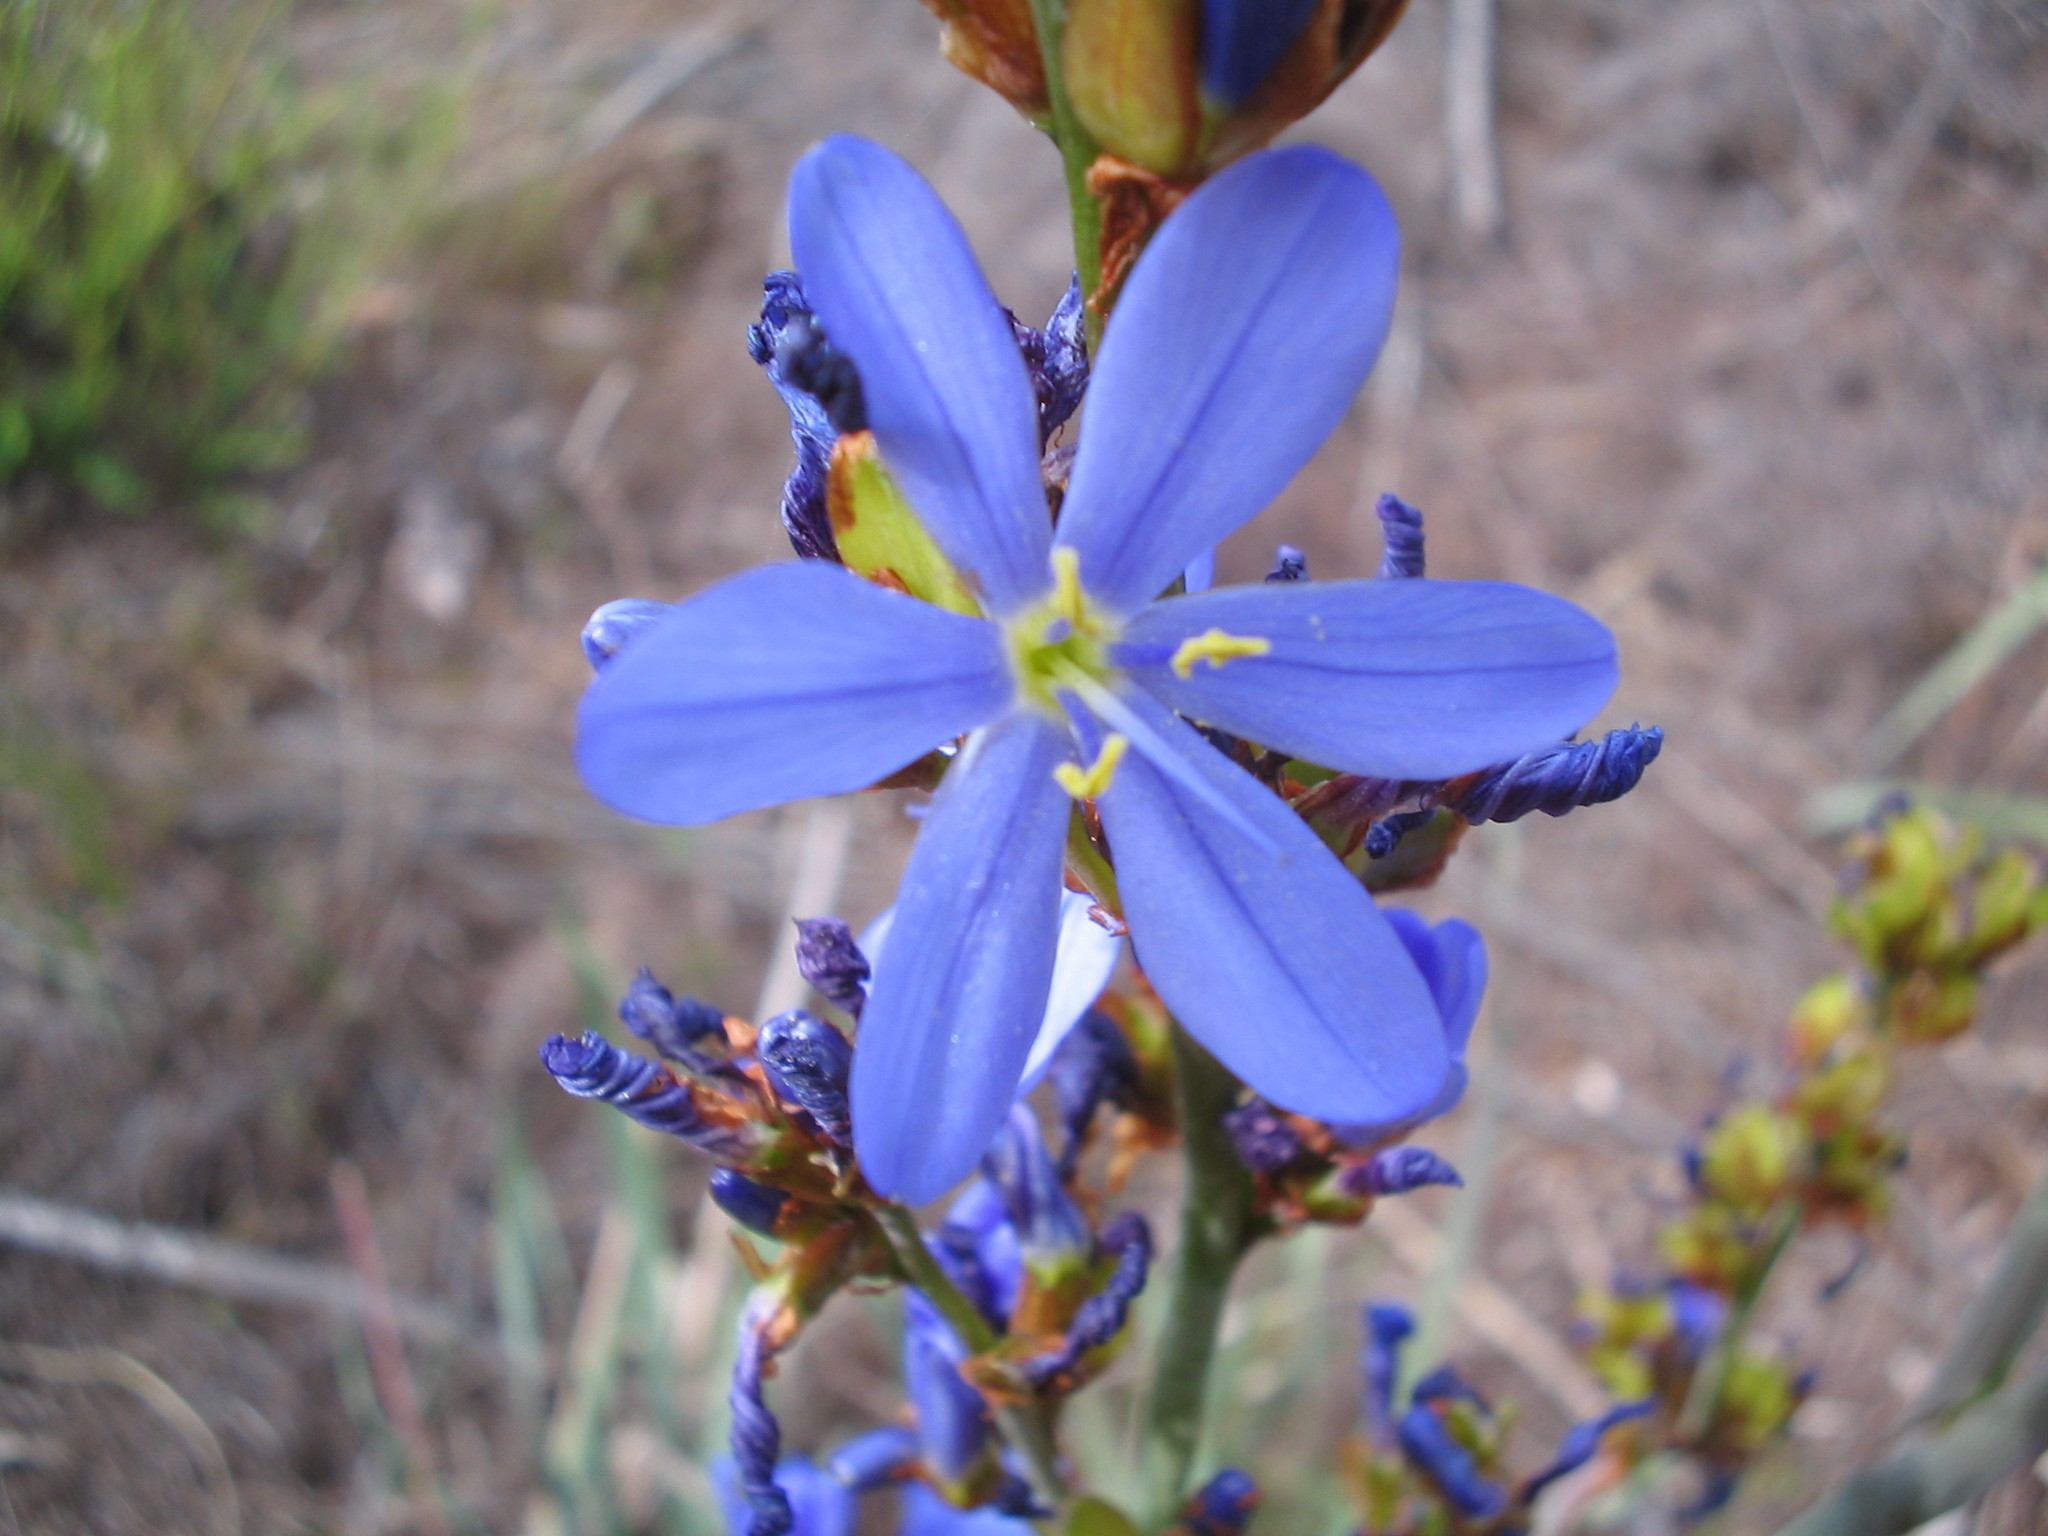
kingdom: Plantae
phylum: Tracheophyta
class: Liliopsida
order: Asparagales
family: Iridaceae
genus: Aristea
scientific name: Aristea bakeri
